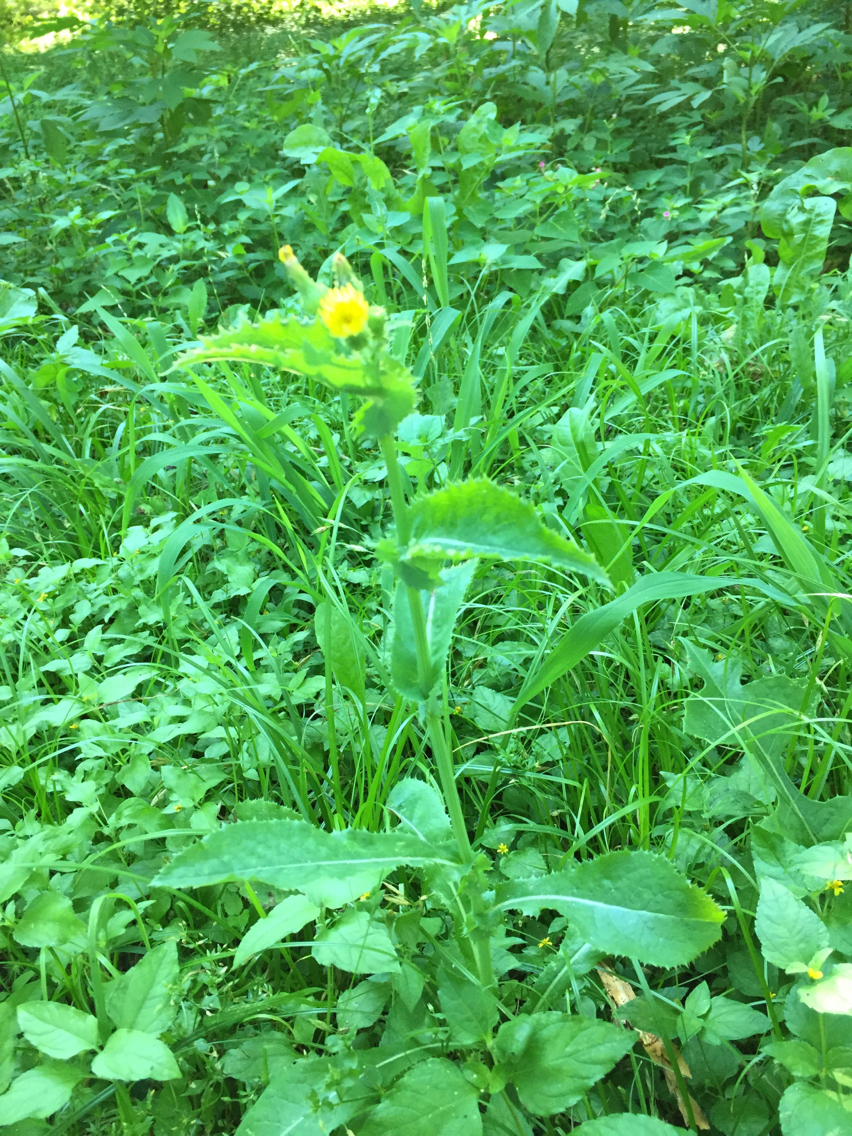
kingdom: Plantae
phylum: Tracheophyta
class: Magnoliopsida
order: Asterales
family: Asteraceae
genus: Sonchus
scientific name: Sonchus oleraceus
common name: Common sowthistle
